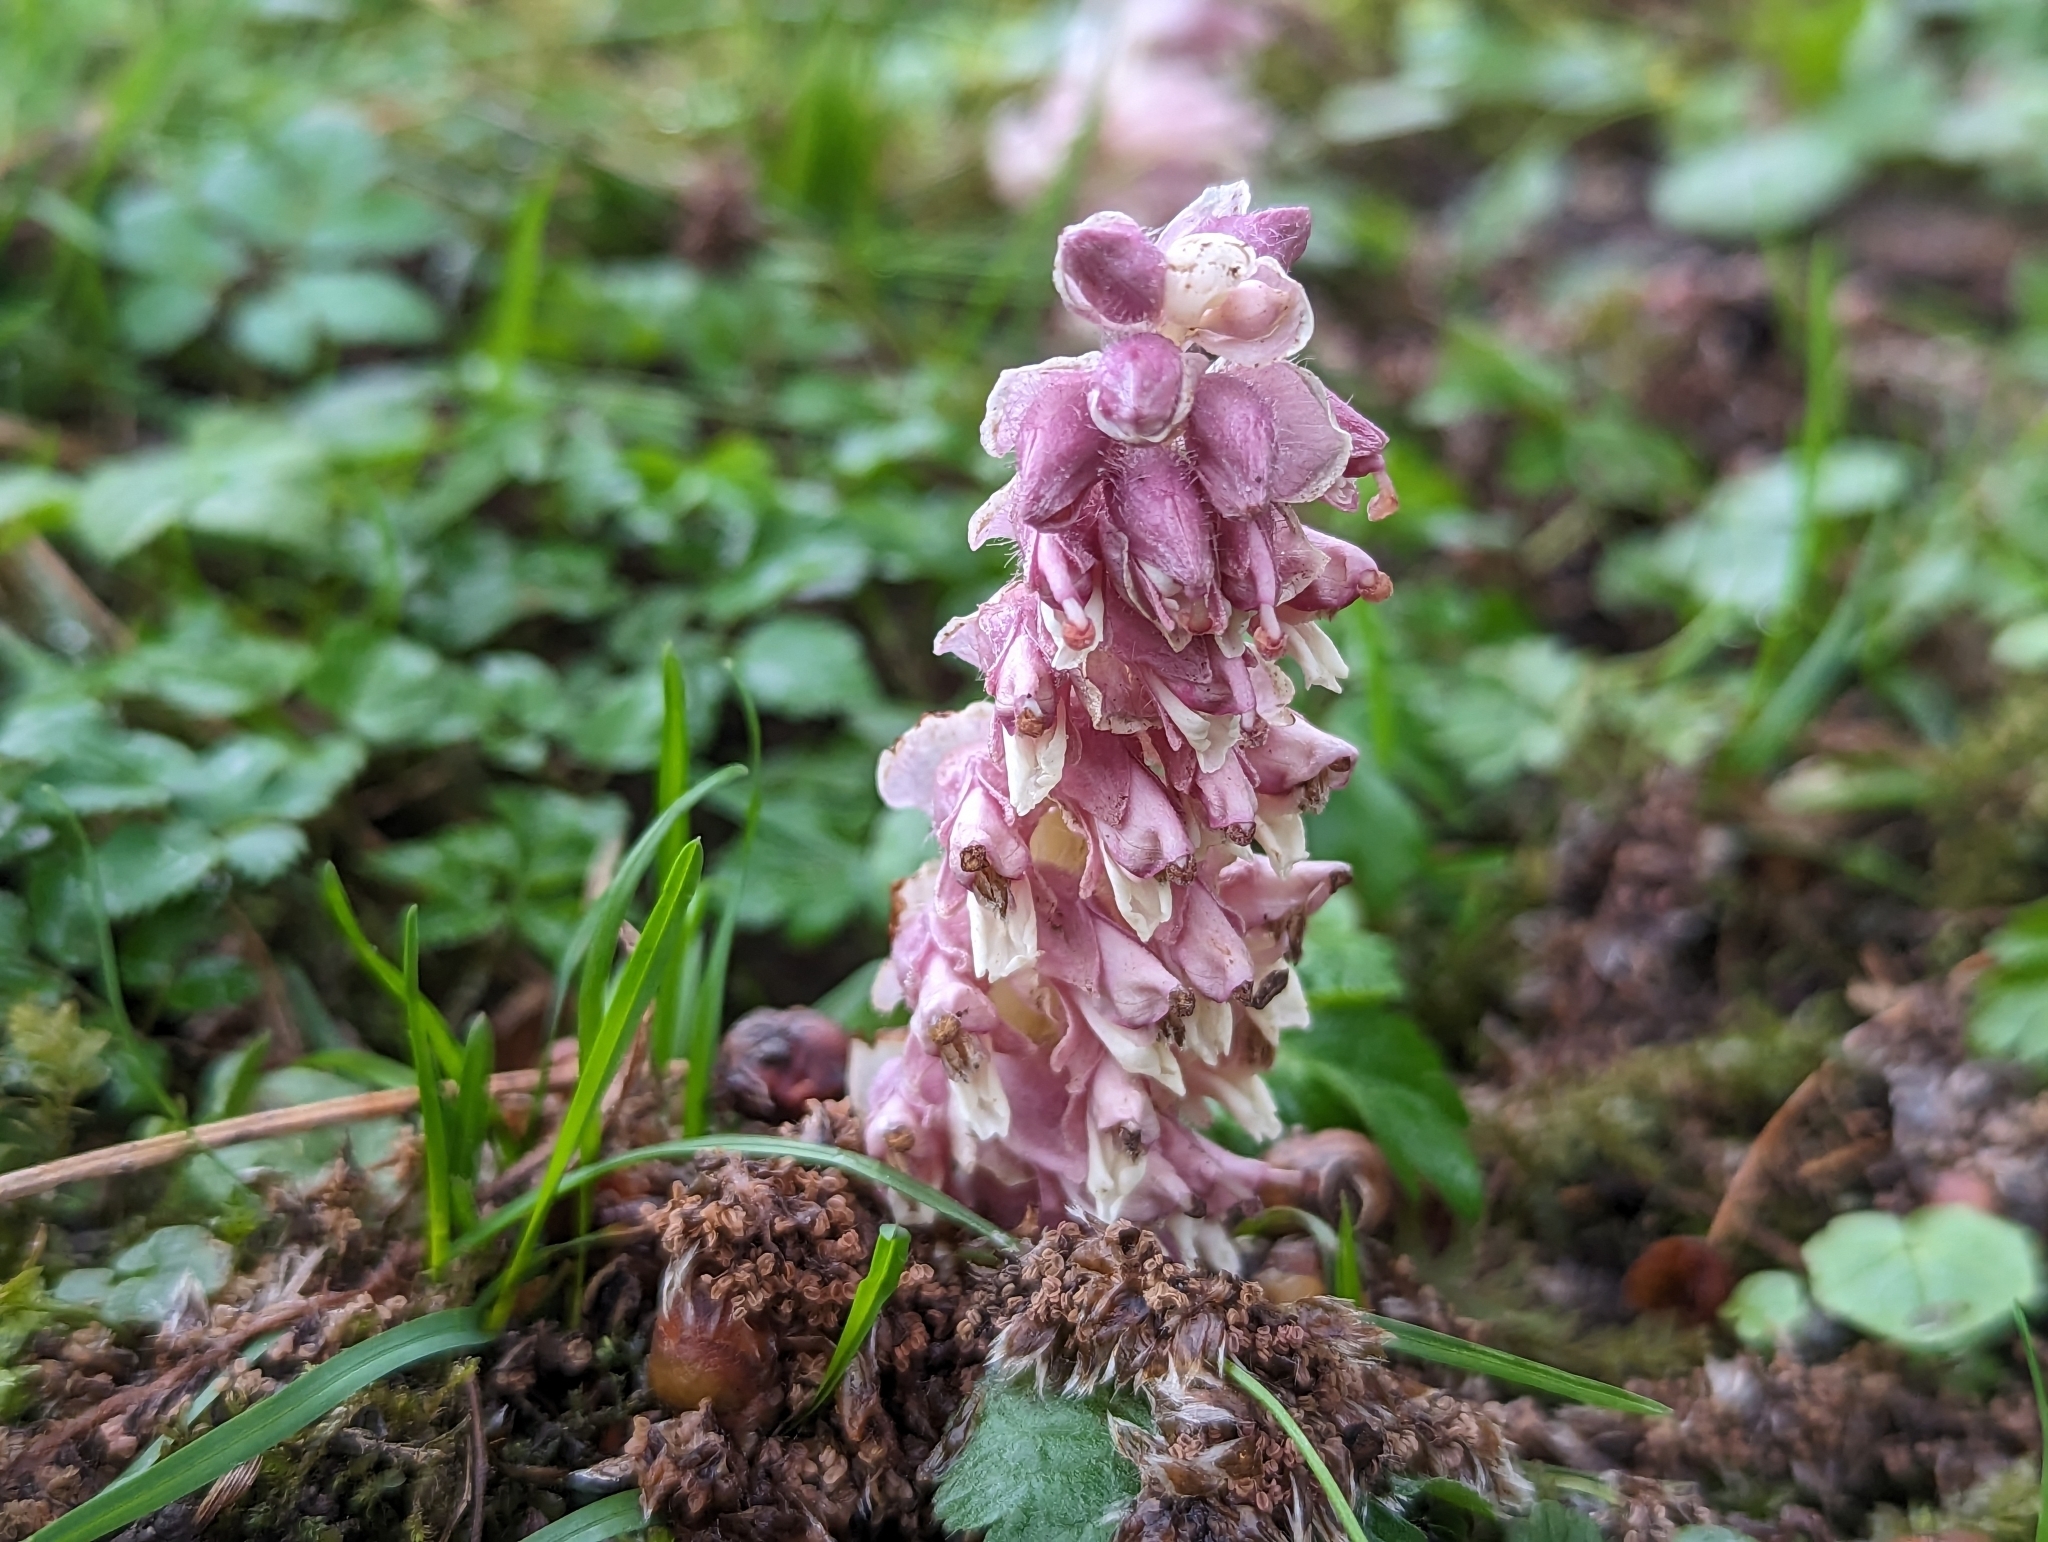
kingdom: Plantae
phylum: Tracheophyta
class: Magnoliopsida
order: Lamiales
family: Orobanchaceae
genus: Lathraea
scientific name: Lathraea squamaria
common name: Toothwort
